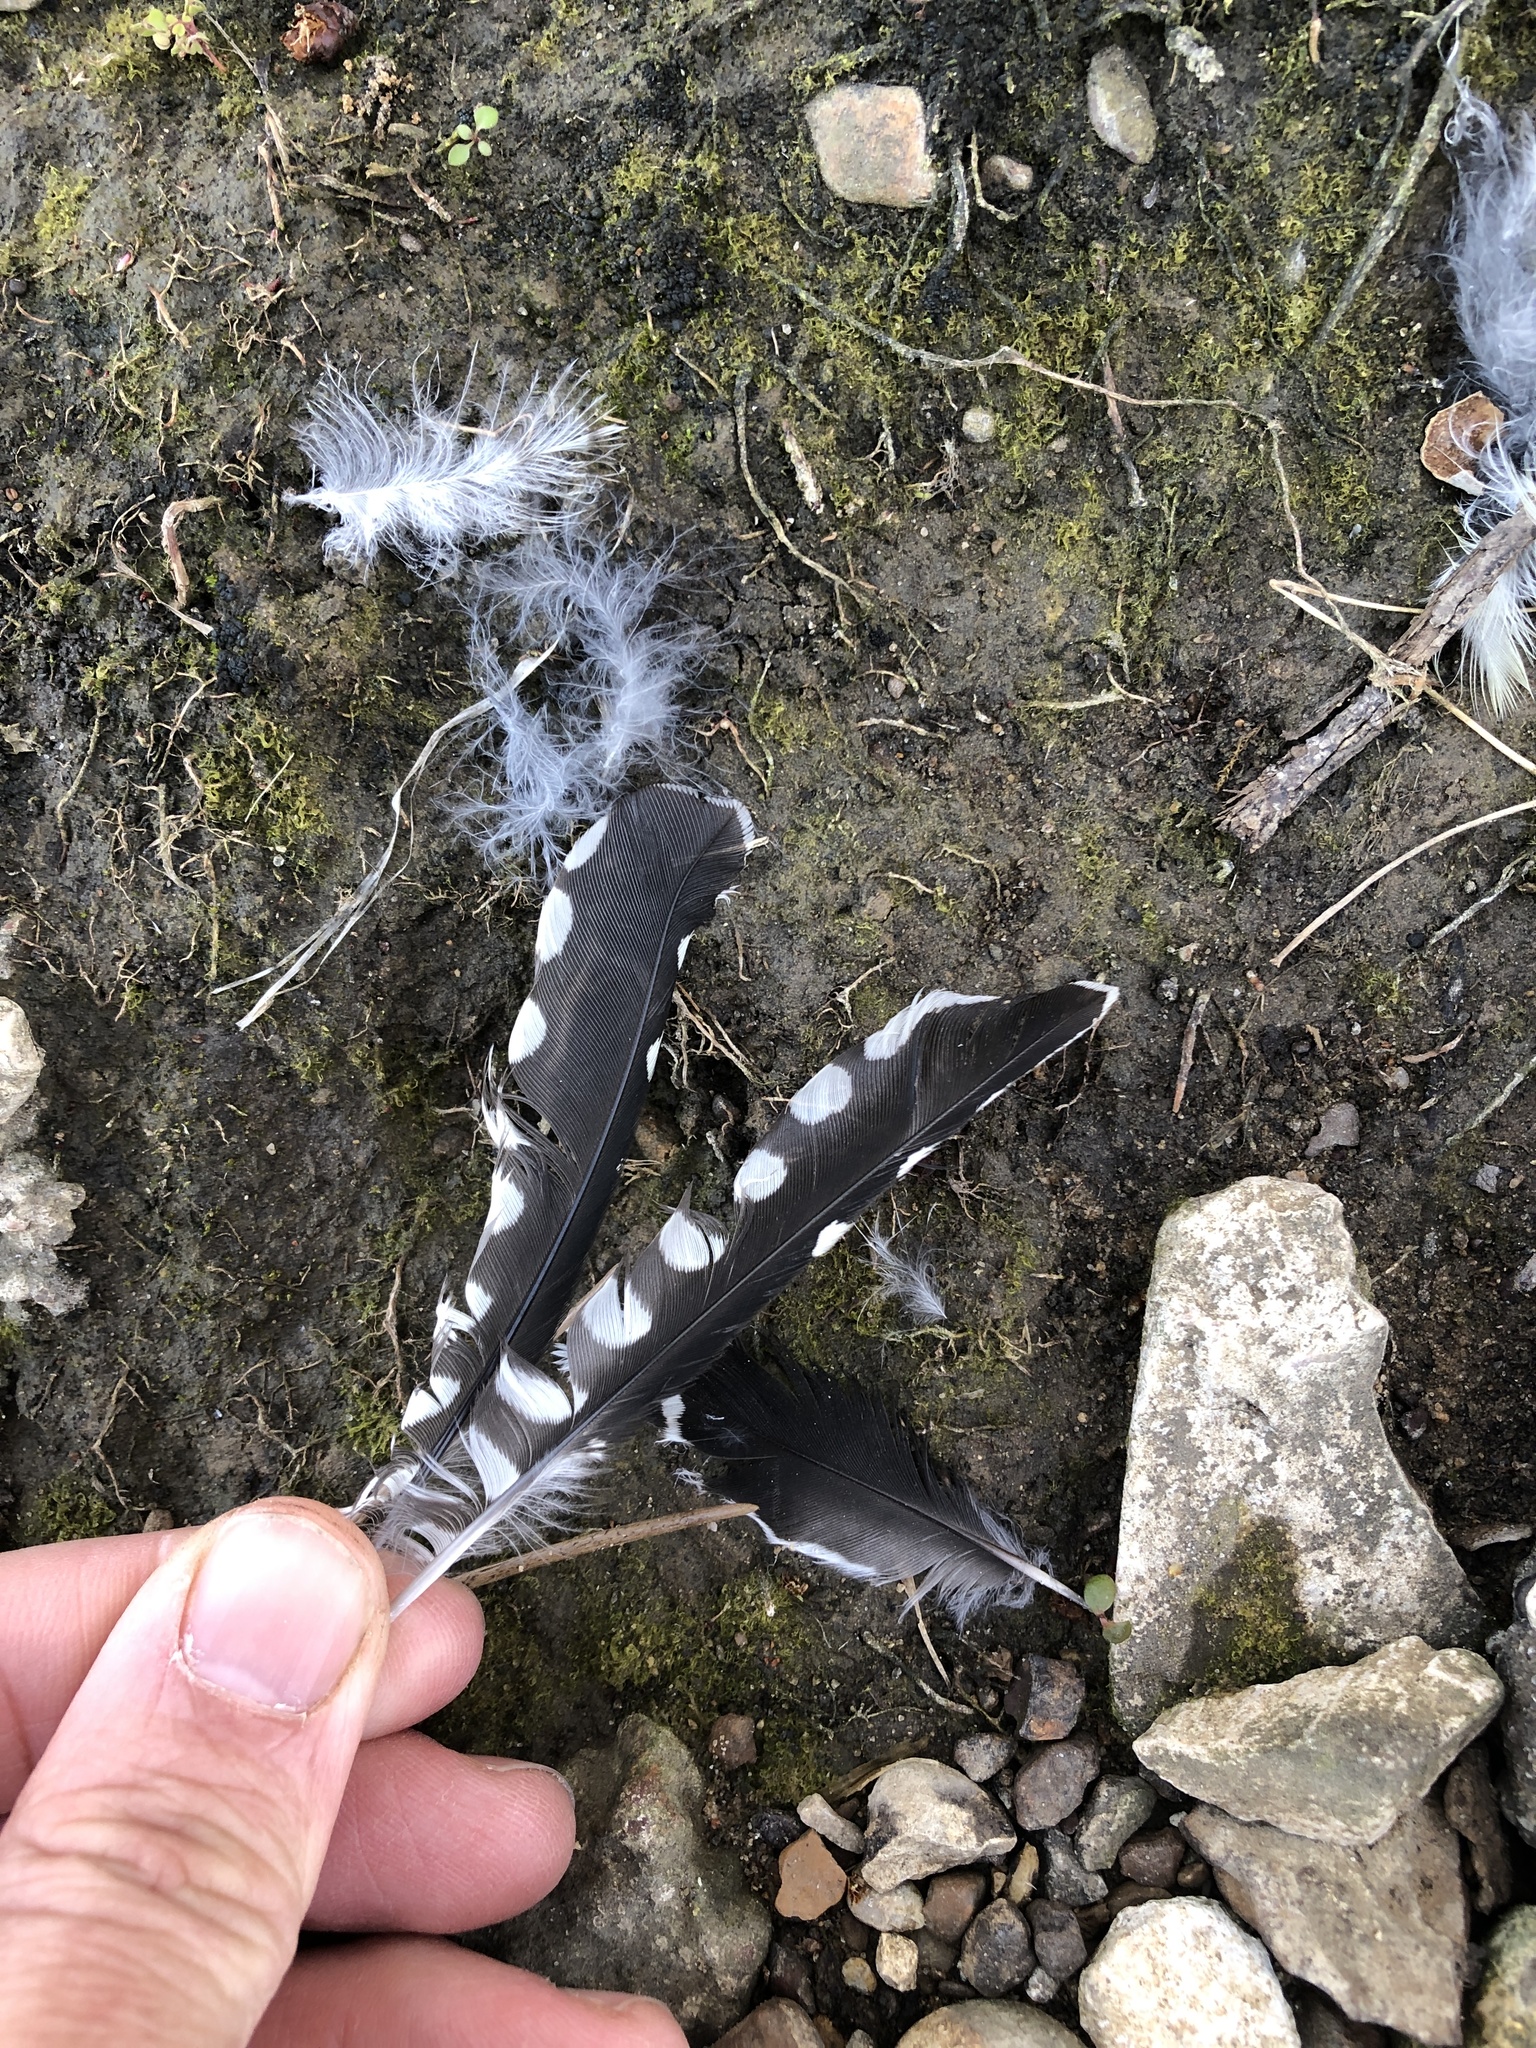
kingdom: Animalia
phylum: Chordata
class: Aves
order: Piciformes
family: Picidae
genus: Sphyrapicus
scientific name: Sphyrapicus varius
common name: Yellow-bellied sapsucker
